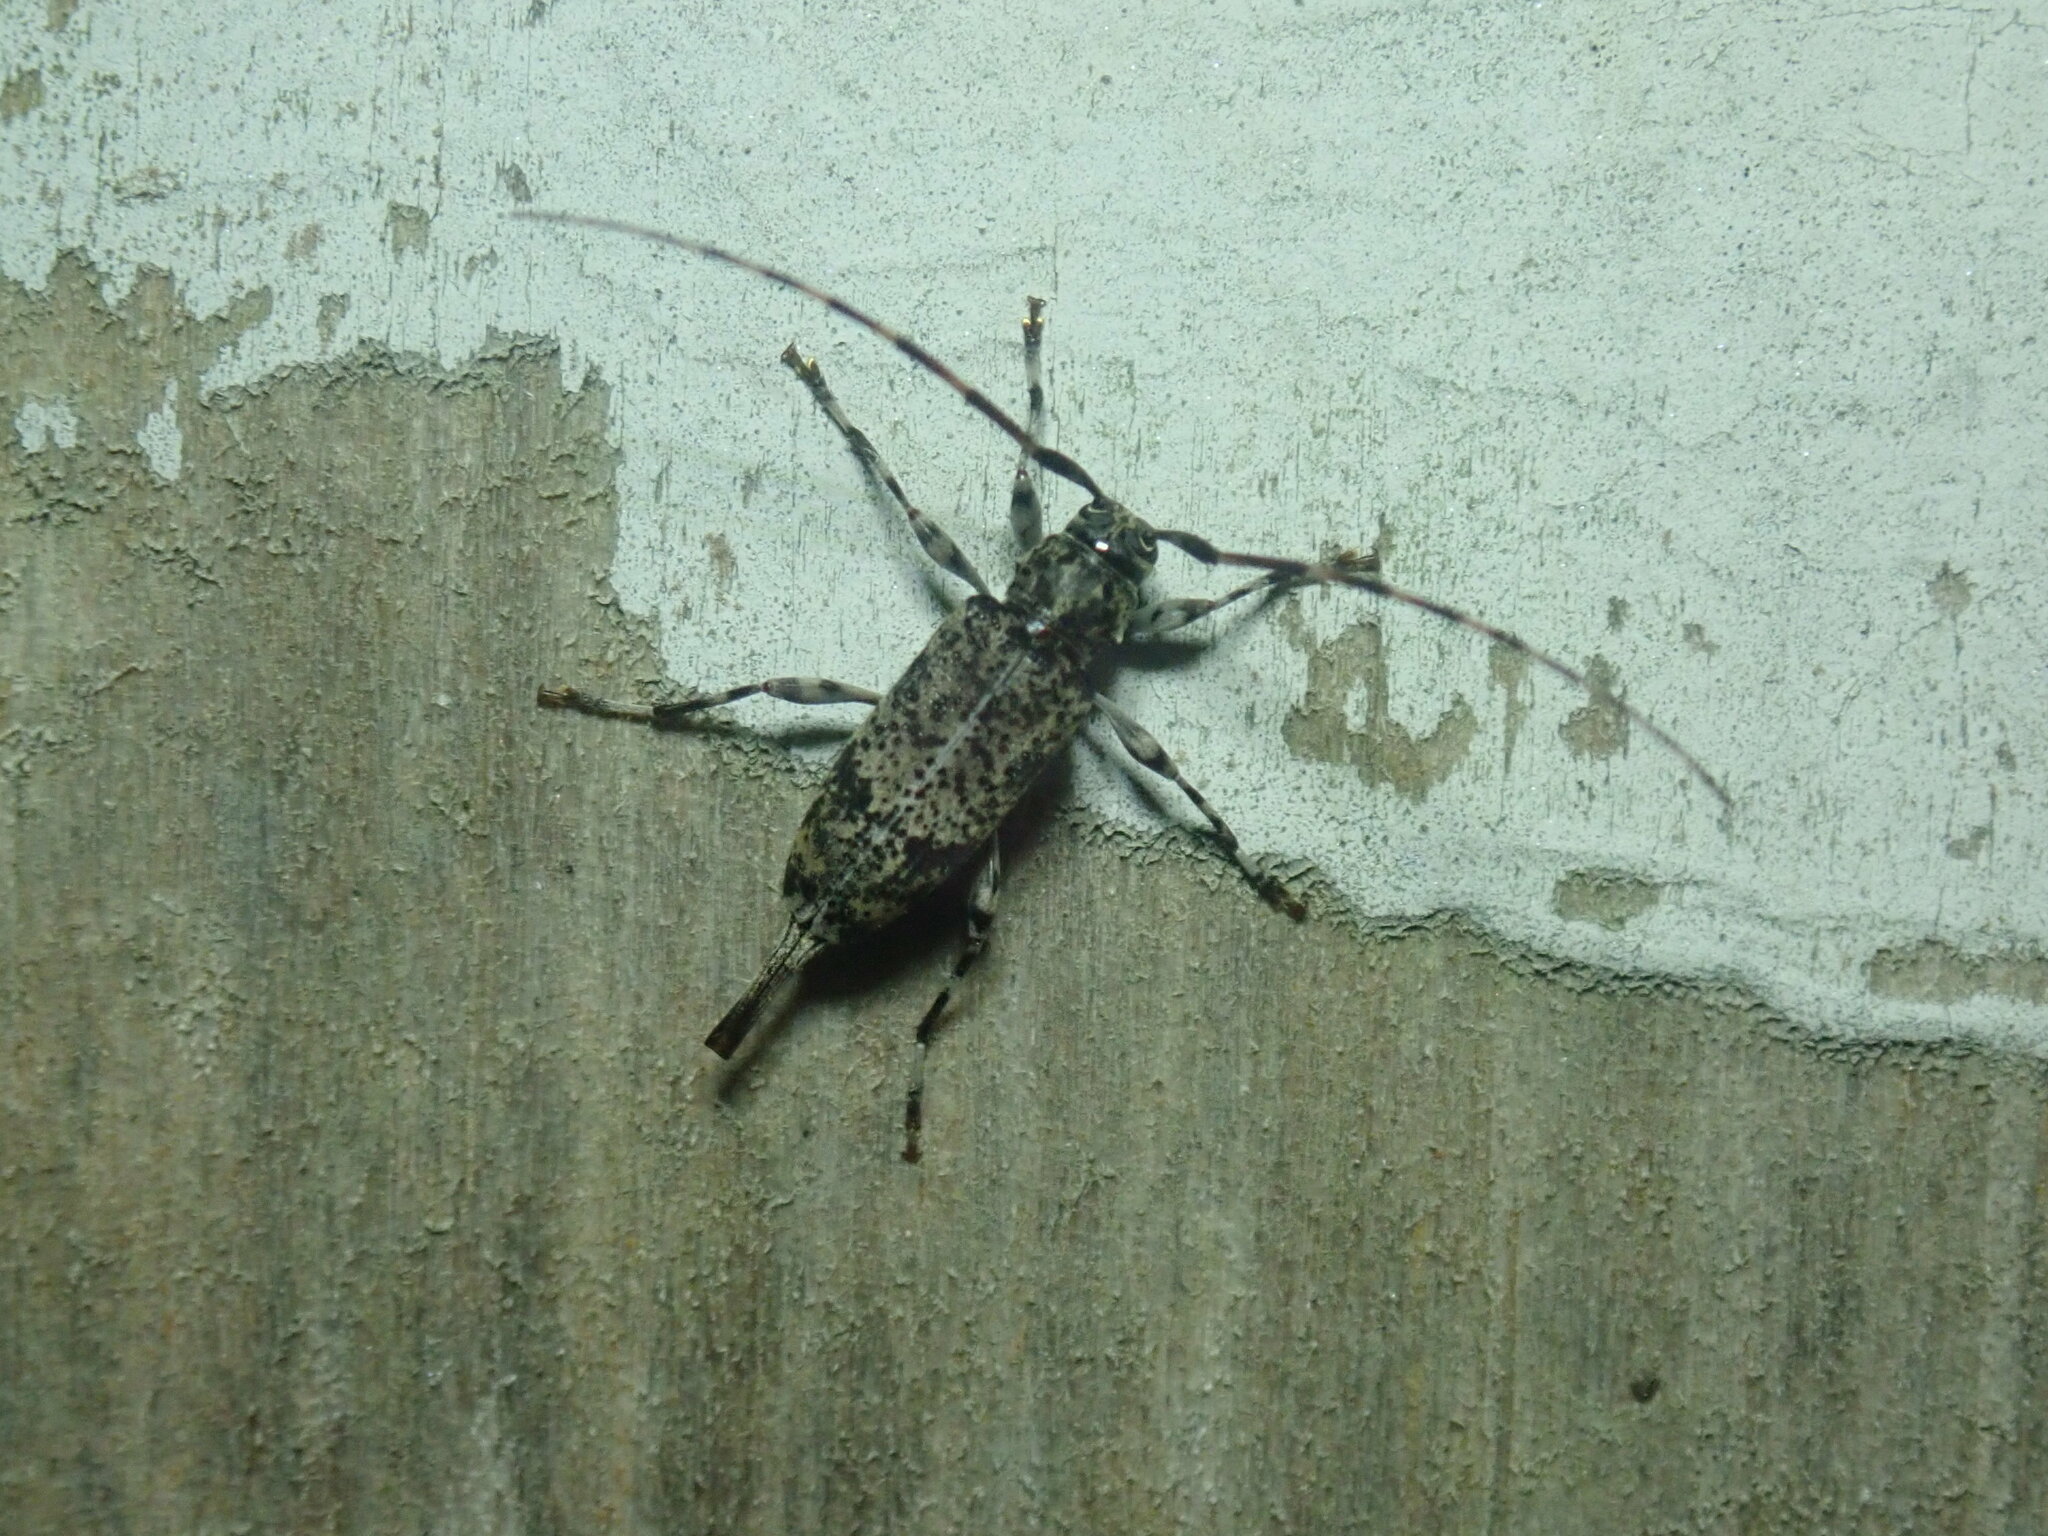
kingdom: Animalia
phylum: Arthropoda
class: Insecta
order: Coleoptera
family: Cerambycidae
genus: Graphisurus
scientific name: Graphisurus fasciatus
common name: Banded graphisurus
